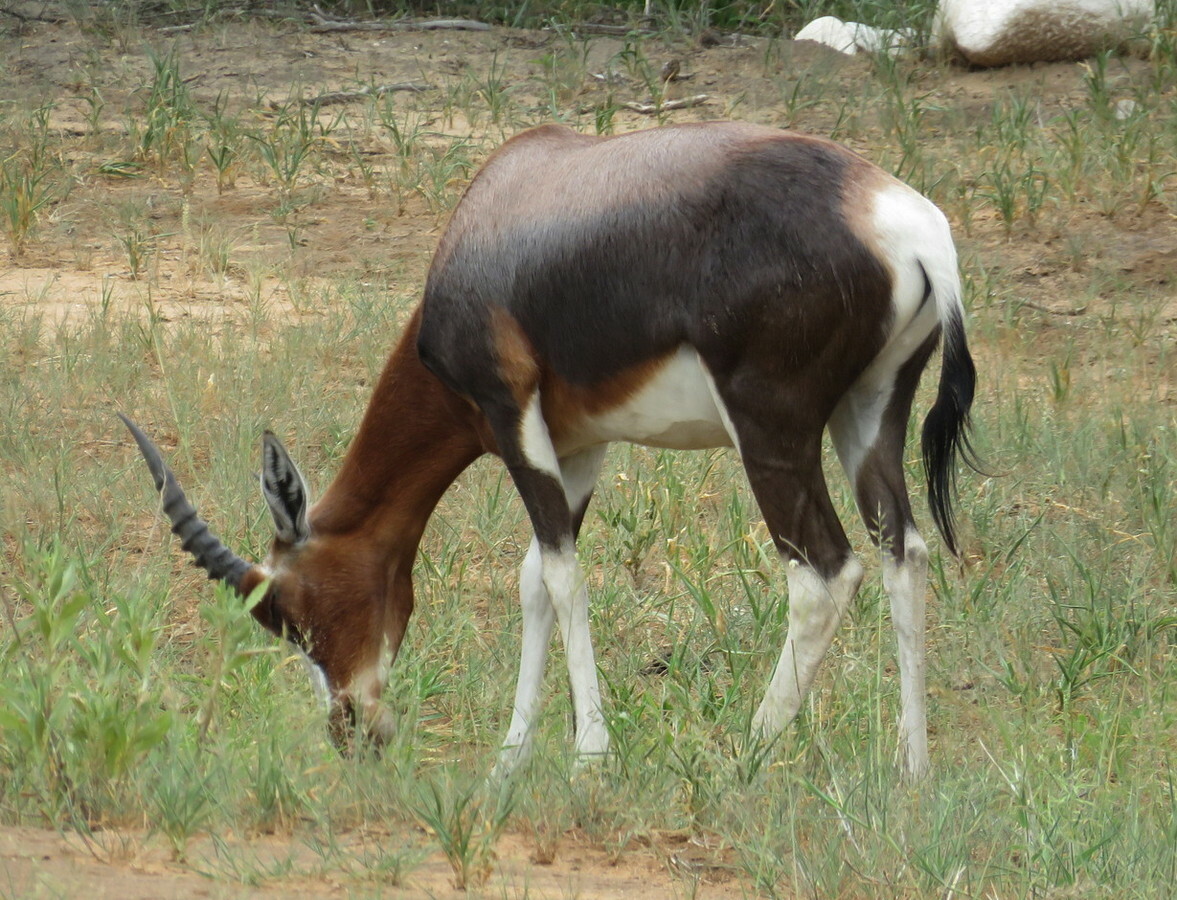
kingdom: Animalia
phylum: Chordata
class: Mammalia
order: Artiodactyla
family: Bovidae
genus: Damaliscus
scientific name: Damaliscus pygargus
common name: Bontebok
